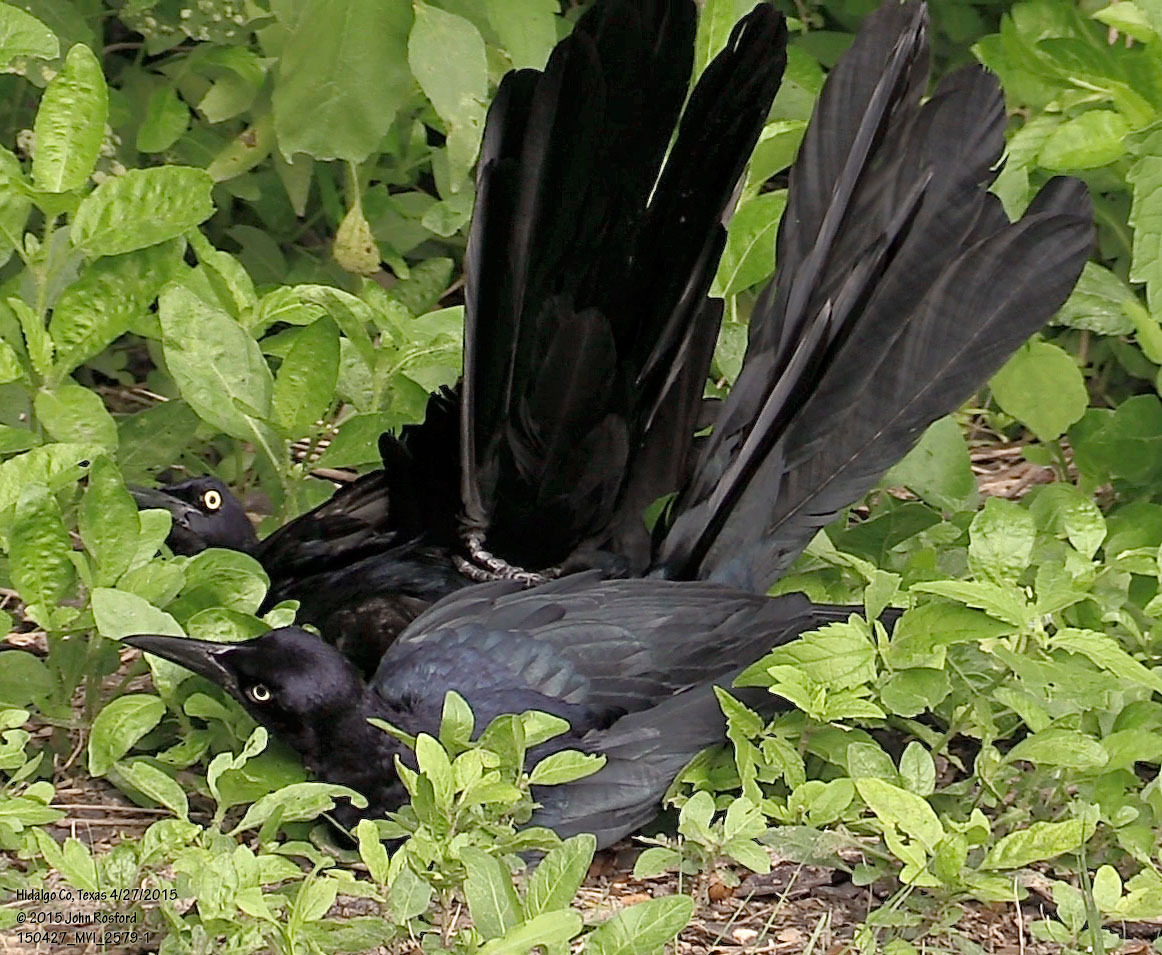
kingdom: Animalia
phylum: Chordata
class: Aves
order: Passeriformes
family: Icteridae
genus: Quiscalus
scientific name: Quiscalus mexicanus
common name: Great-tailed grackle
